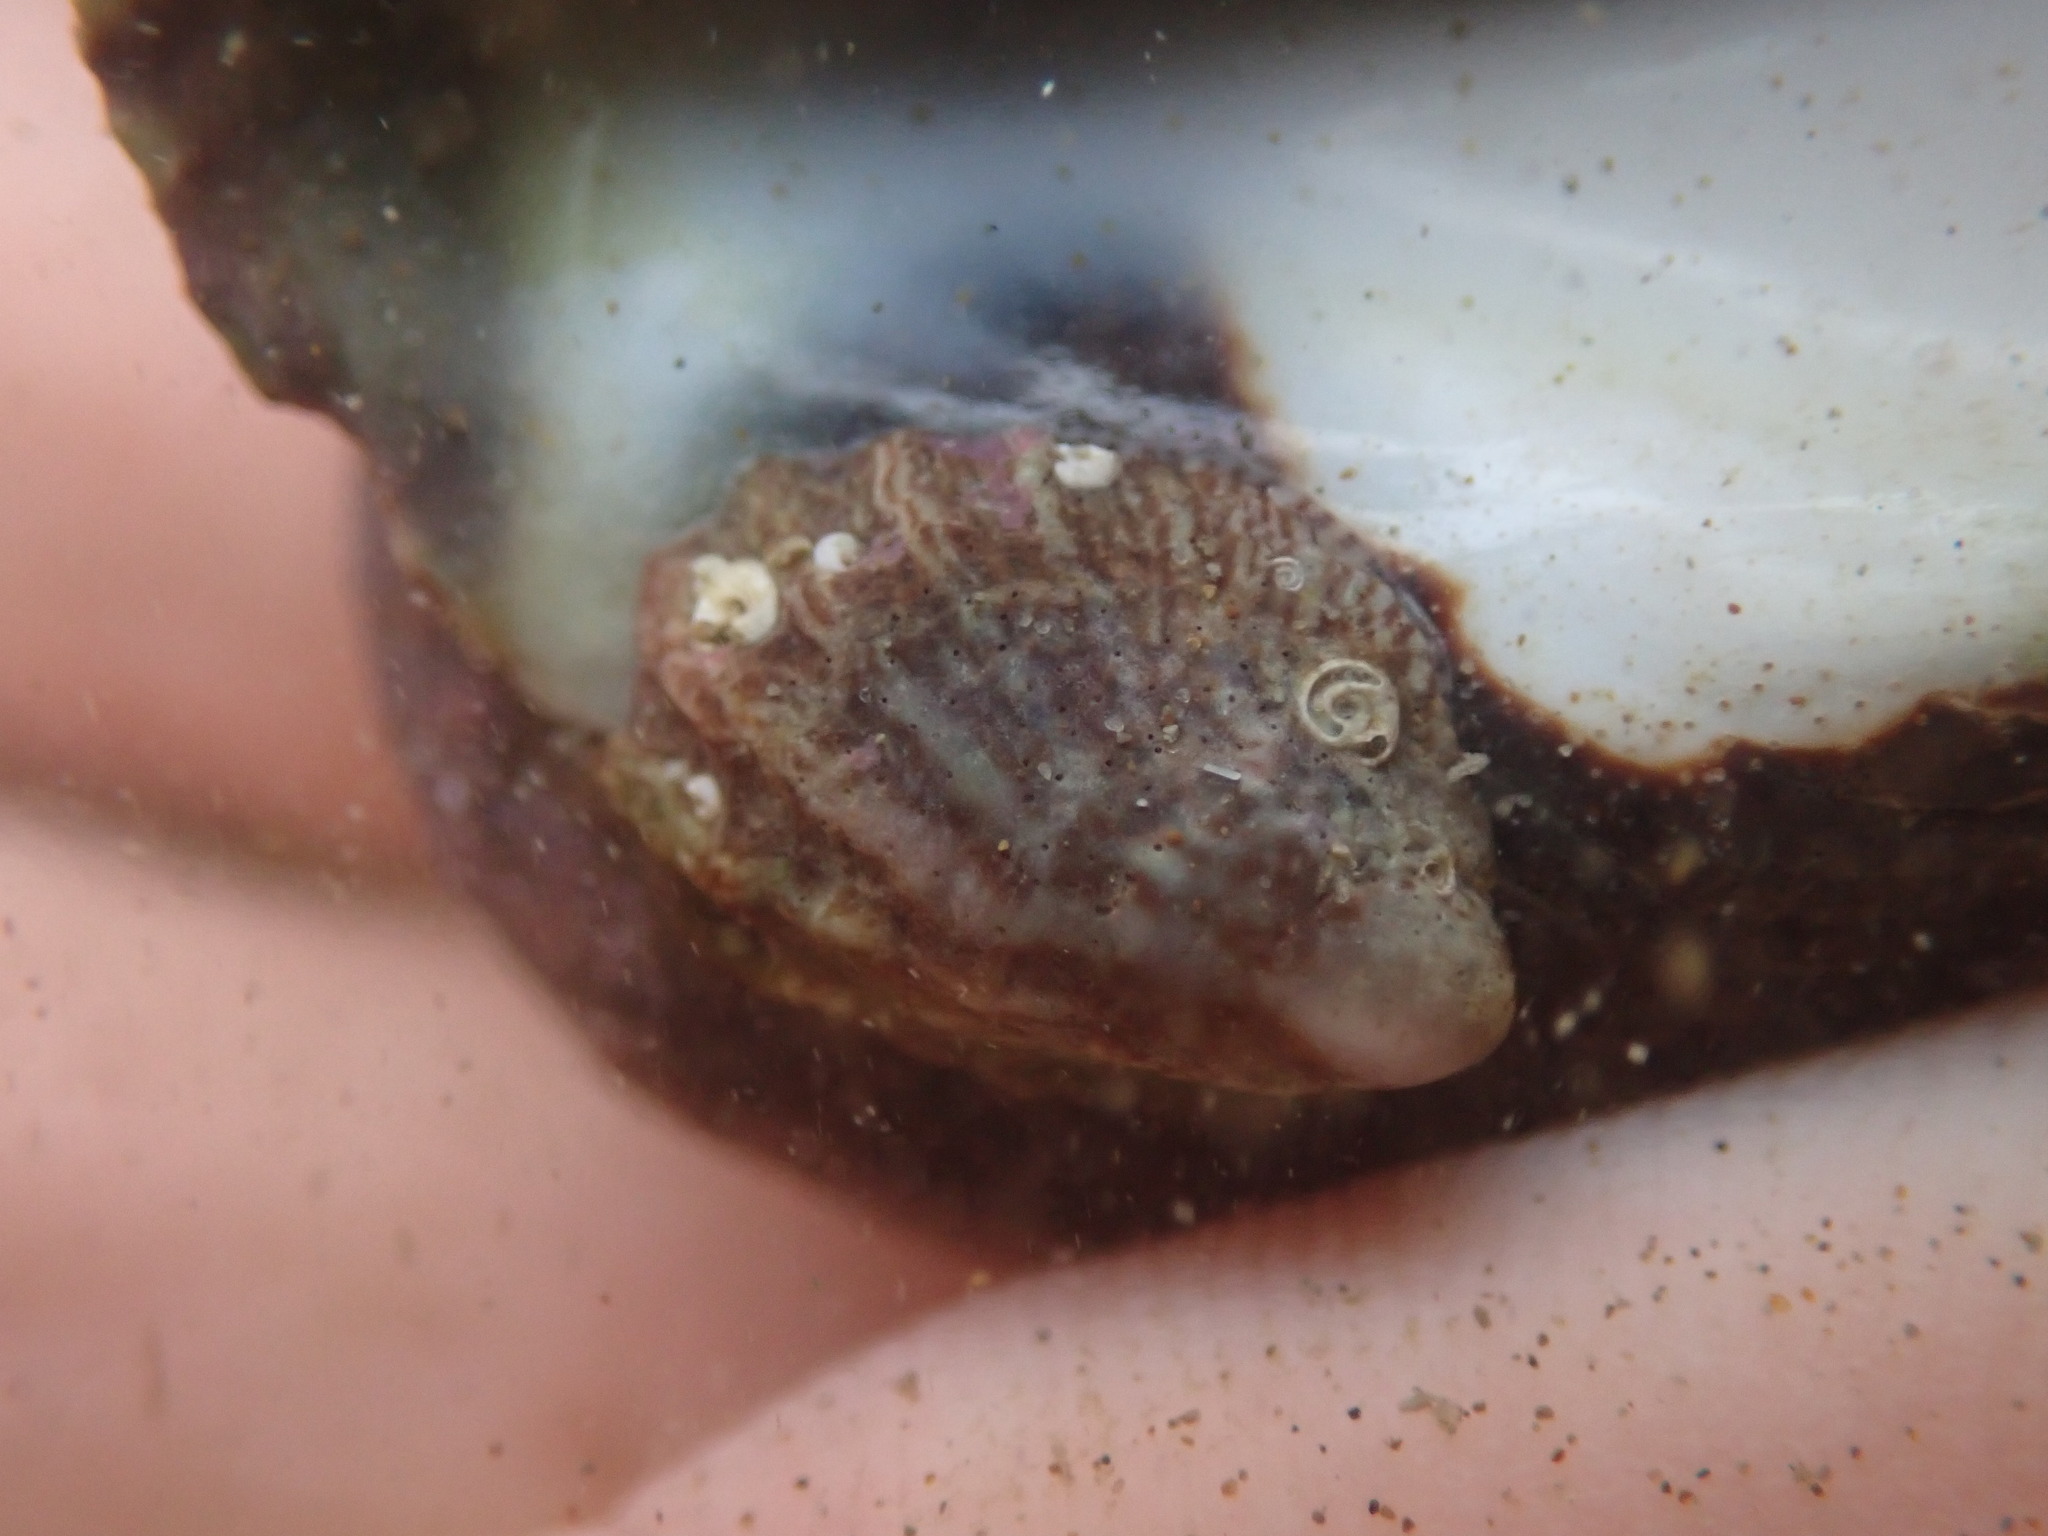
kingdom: Animalia
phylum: Mollusca
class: Gastropoda
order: Littorinimorpha
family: Calyptraeidae
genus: Maoricrypta
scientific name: Maoricrypta costata
